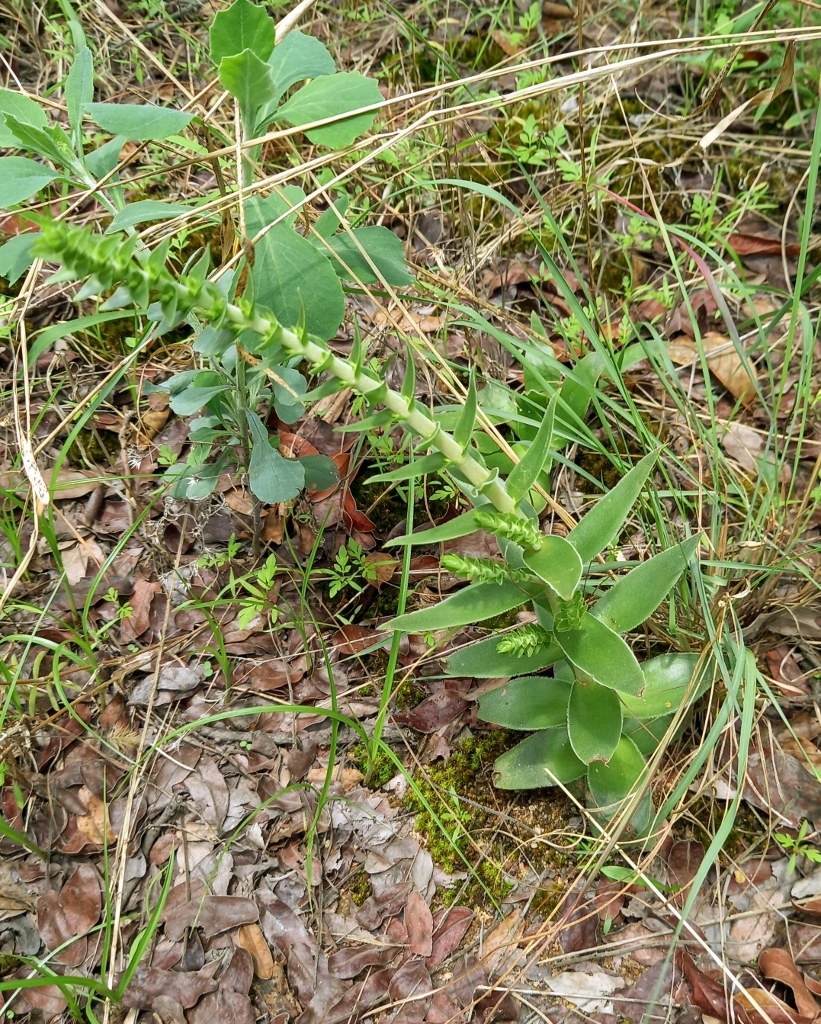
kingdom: Plantae
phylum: Tracheophyta
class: Magnoliopsida
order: Saxifragales
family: Crassulaceae
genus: Crassula
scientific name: Crassula nodulosa
